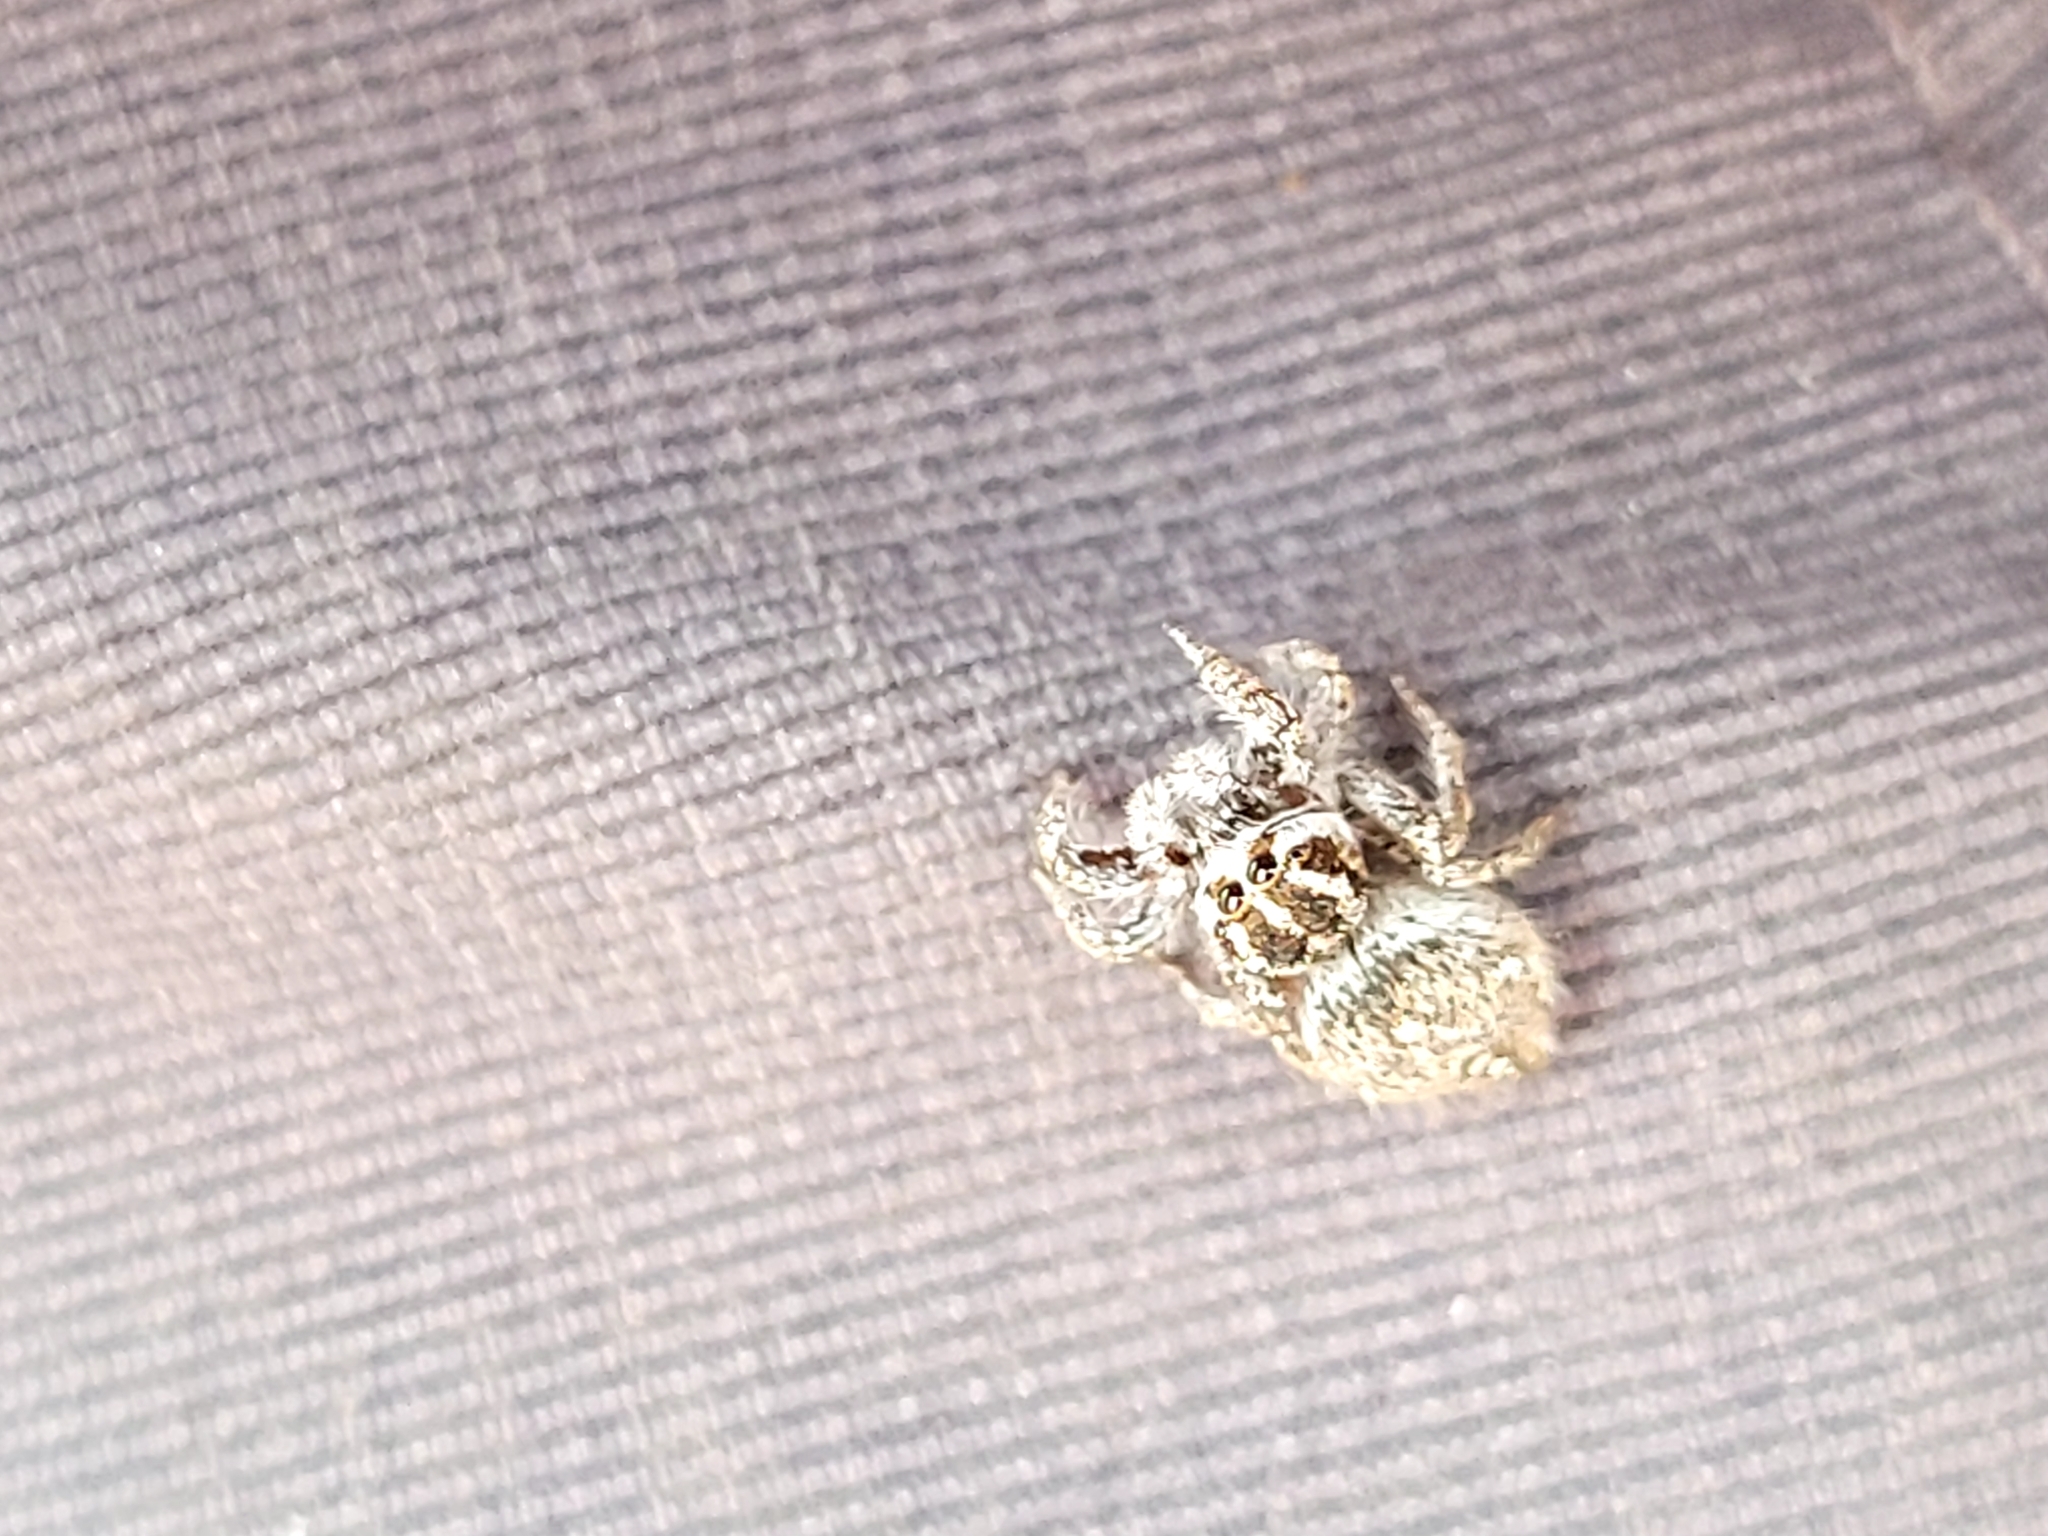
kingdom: Animalia
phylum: Arthropoda
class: Arachnida
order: Araneae
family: Salticidae
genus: Habronattus
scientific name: Habronattus cognatus
